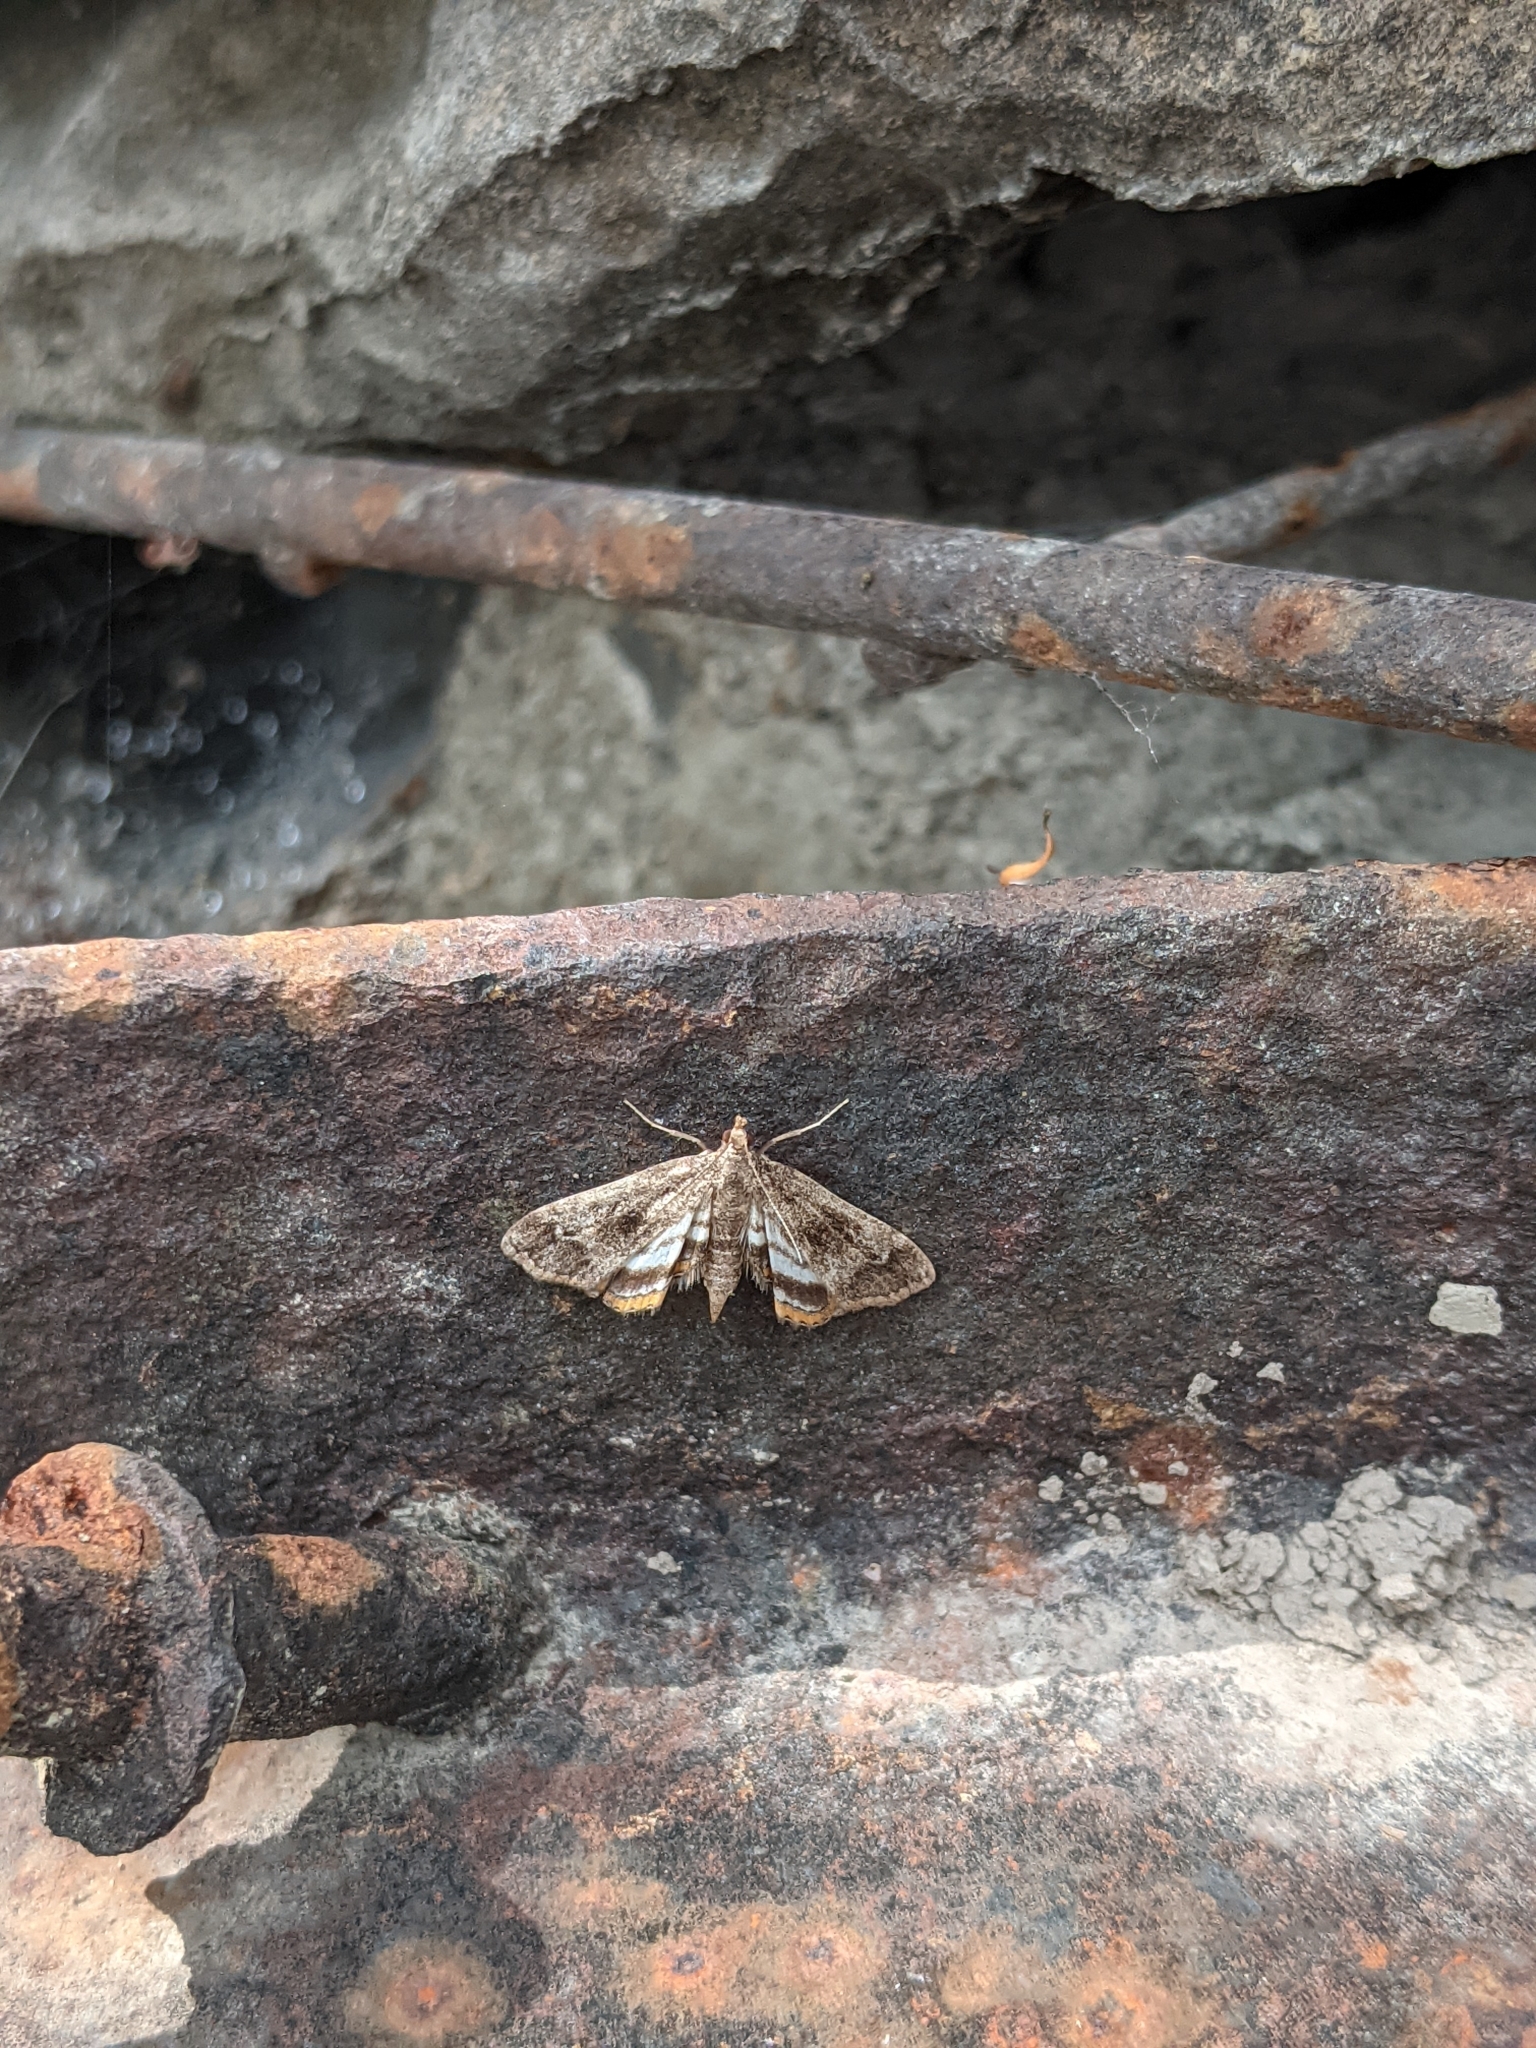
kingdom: Animalia
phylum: Arthropoda
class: Insecta
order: Lepidoptera
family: Crambidae
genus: Parapoynx
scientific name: Parapoynx obscuralis
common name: American china-mark
